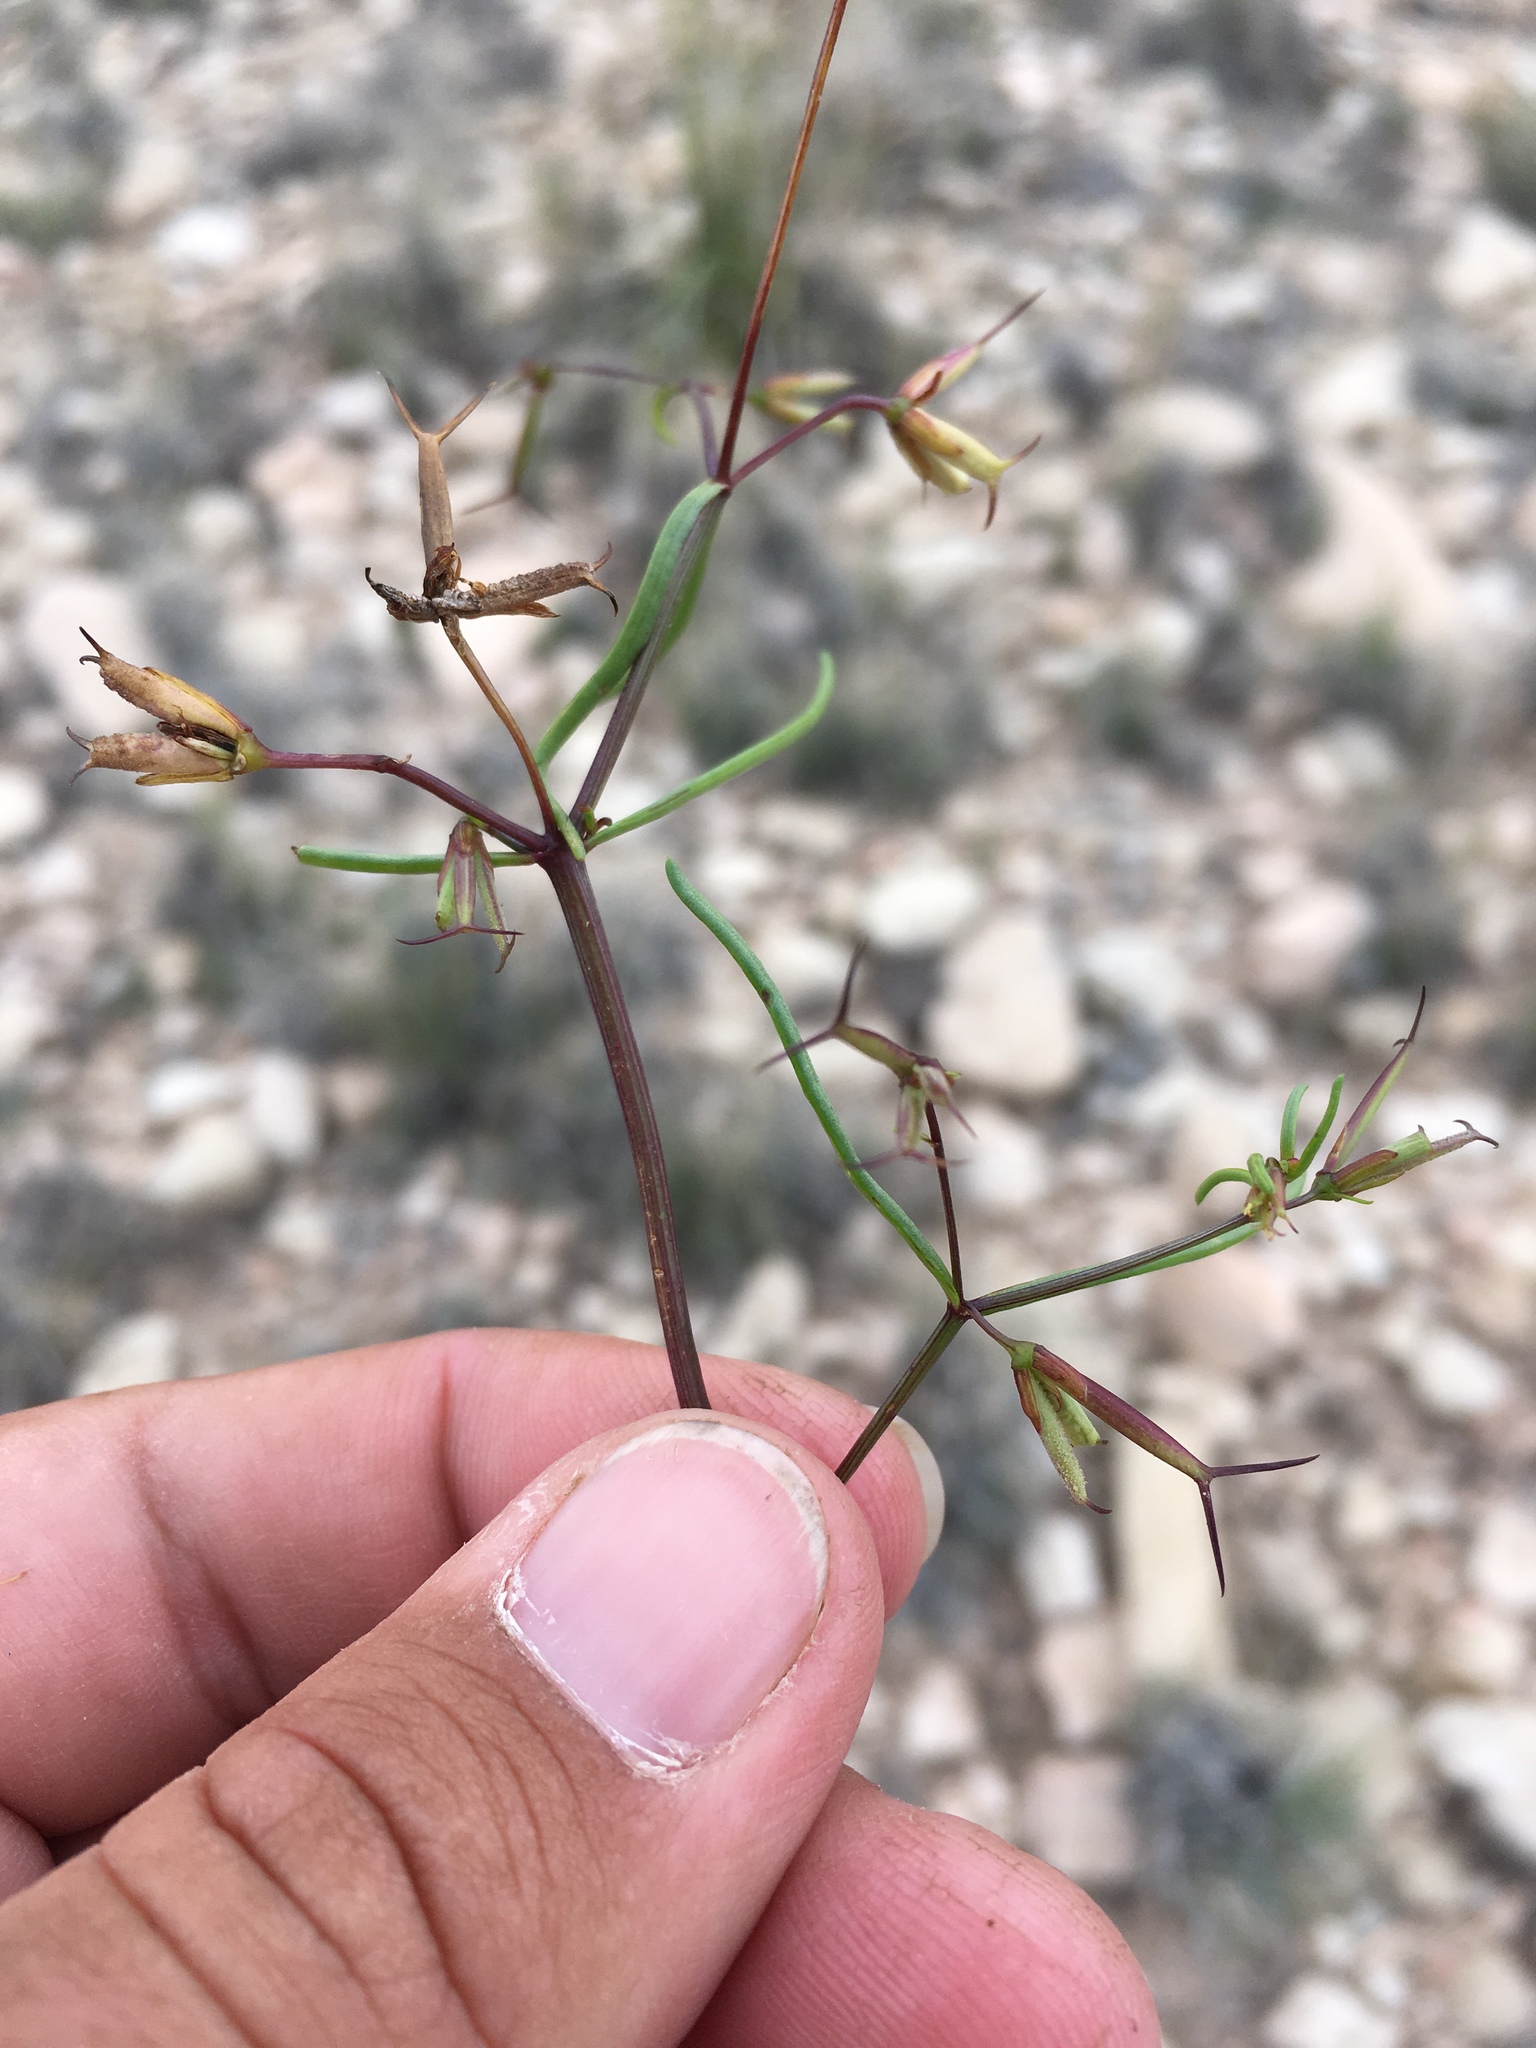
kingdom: Plantae
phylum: Tracheophyta
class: Magnoliopsida
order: Asterales
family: Asteraceae
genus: Dicranocarpus
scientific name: Dicranocarpus parviflorus
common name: Pitchfork
